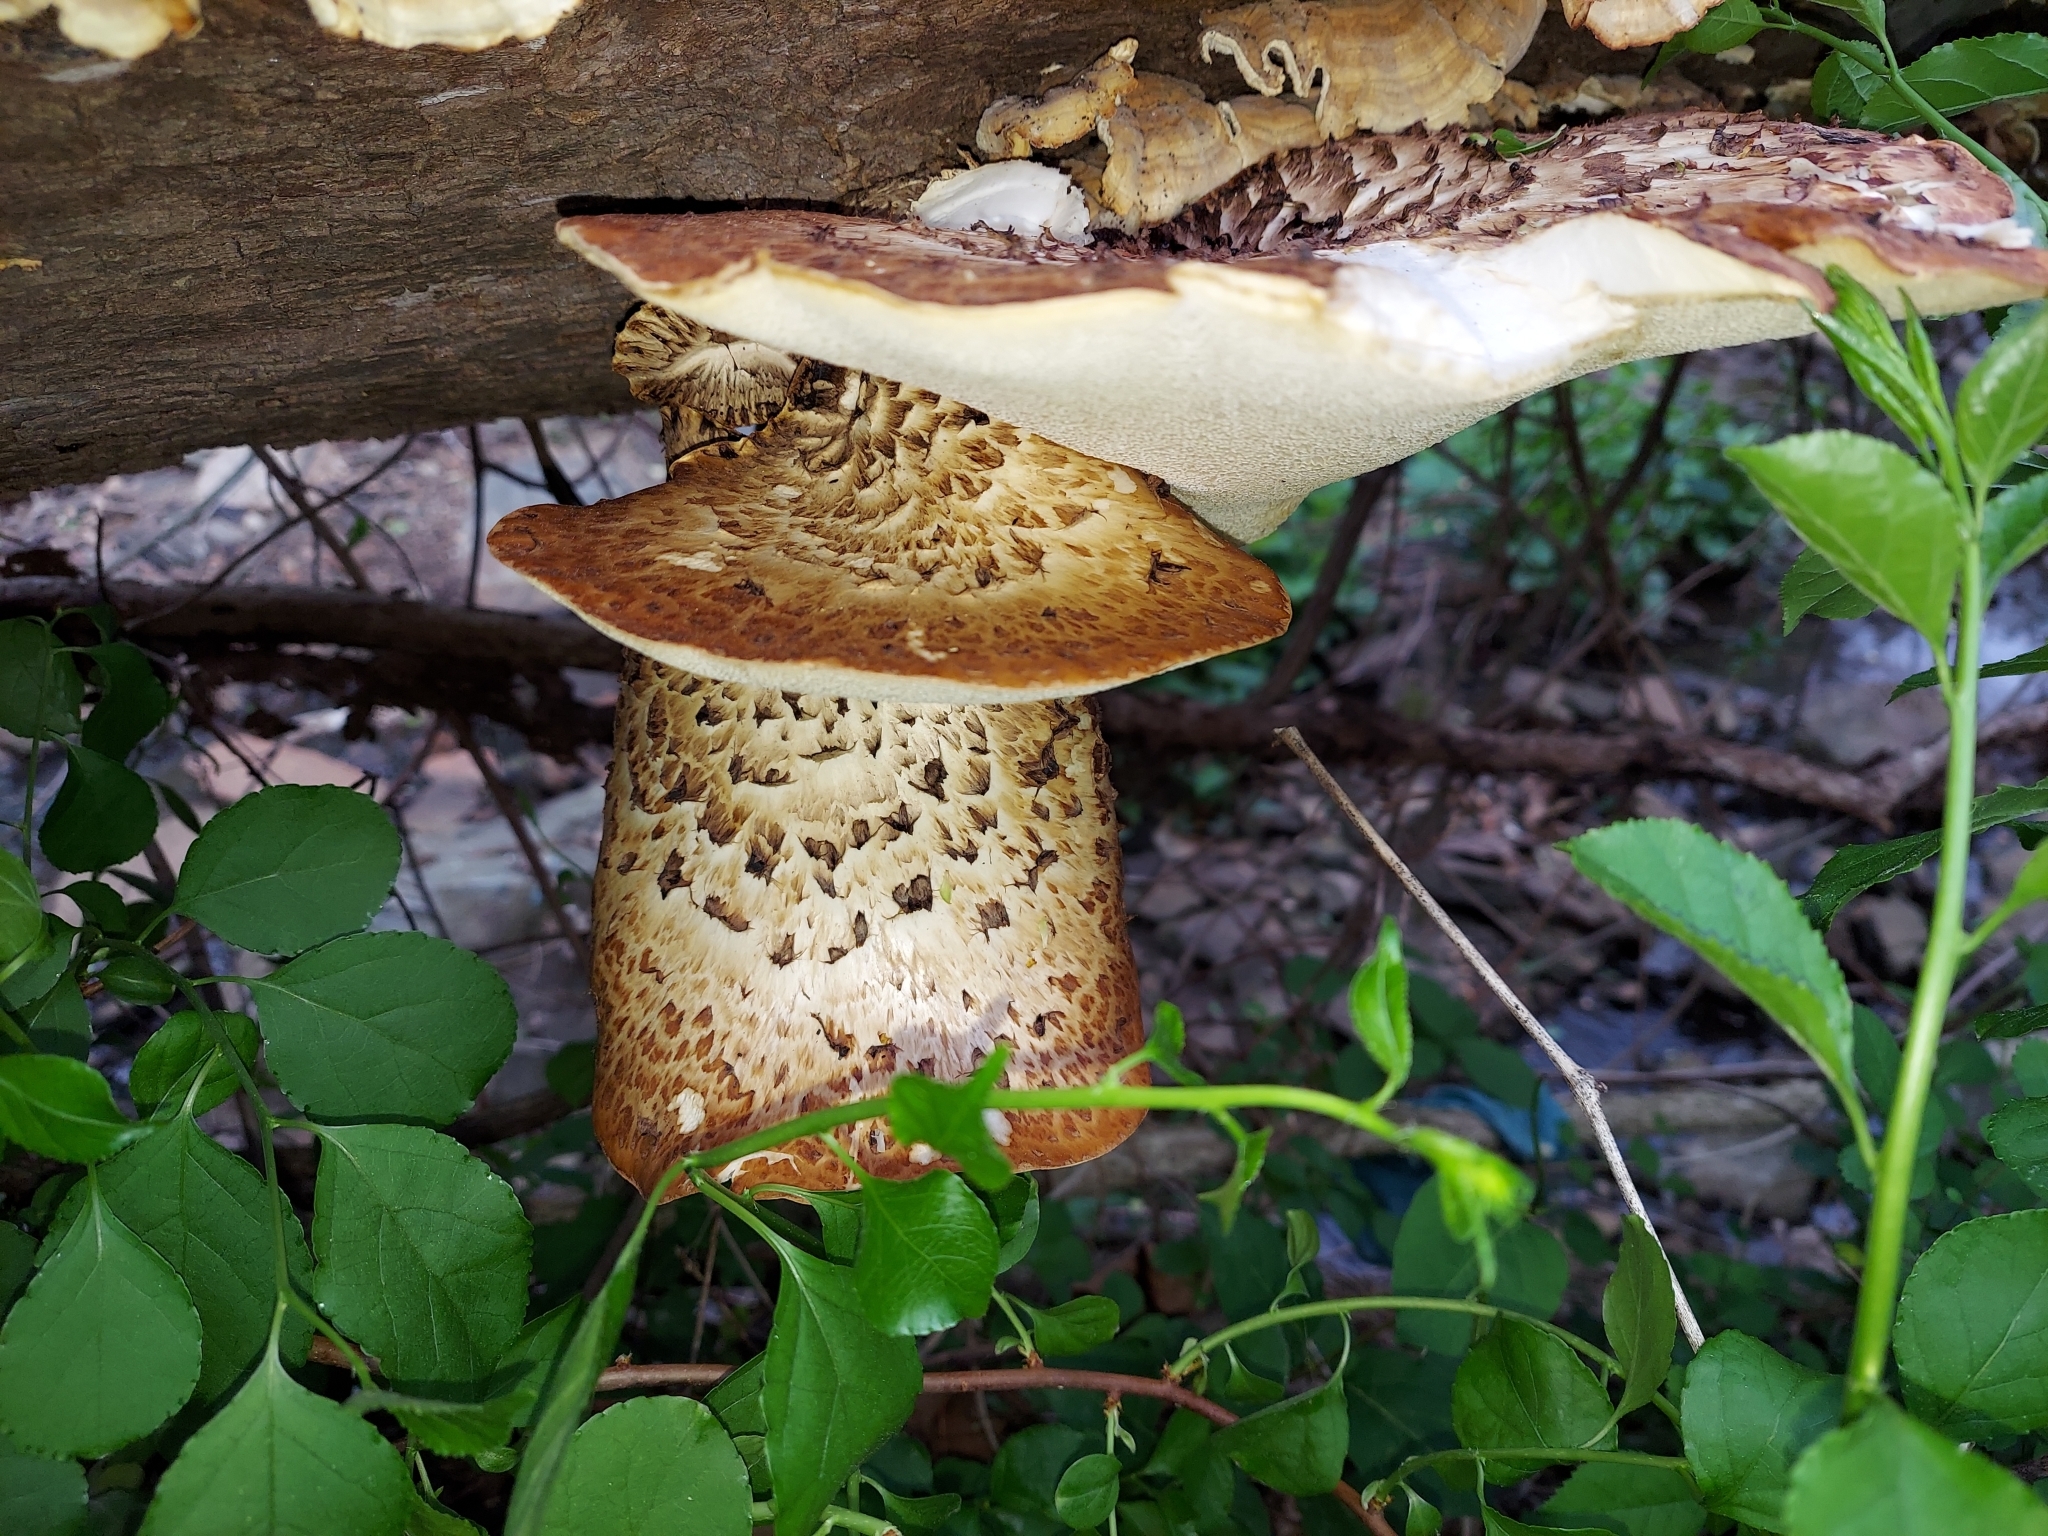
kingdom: Fungi
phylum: Basidiomycota
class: Agaricomycetes
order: Polyporales
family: Polyporaceae
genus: Cerioporus
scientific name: Cerioporus squamosus
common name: Dryad's saddle
